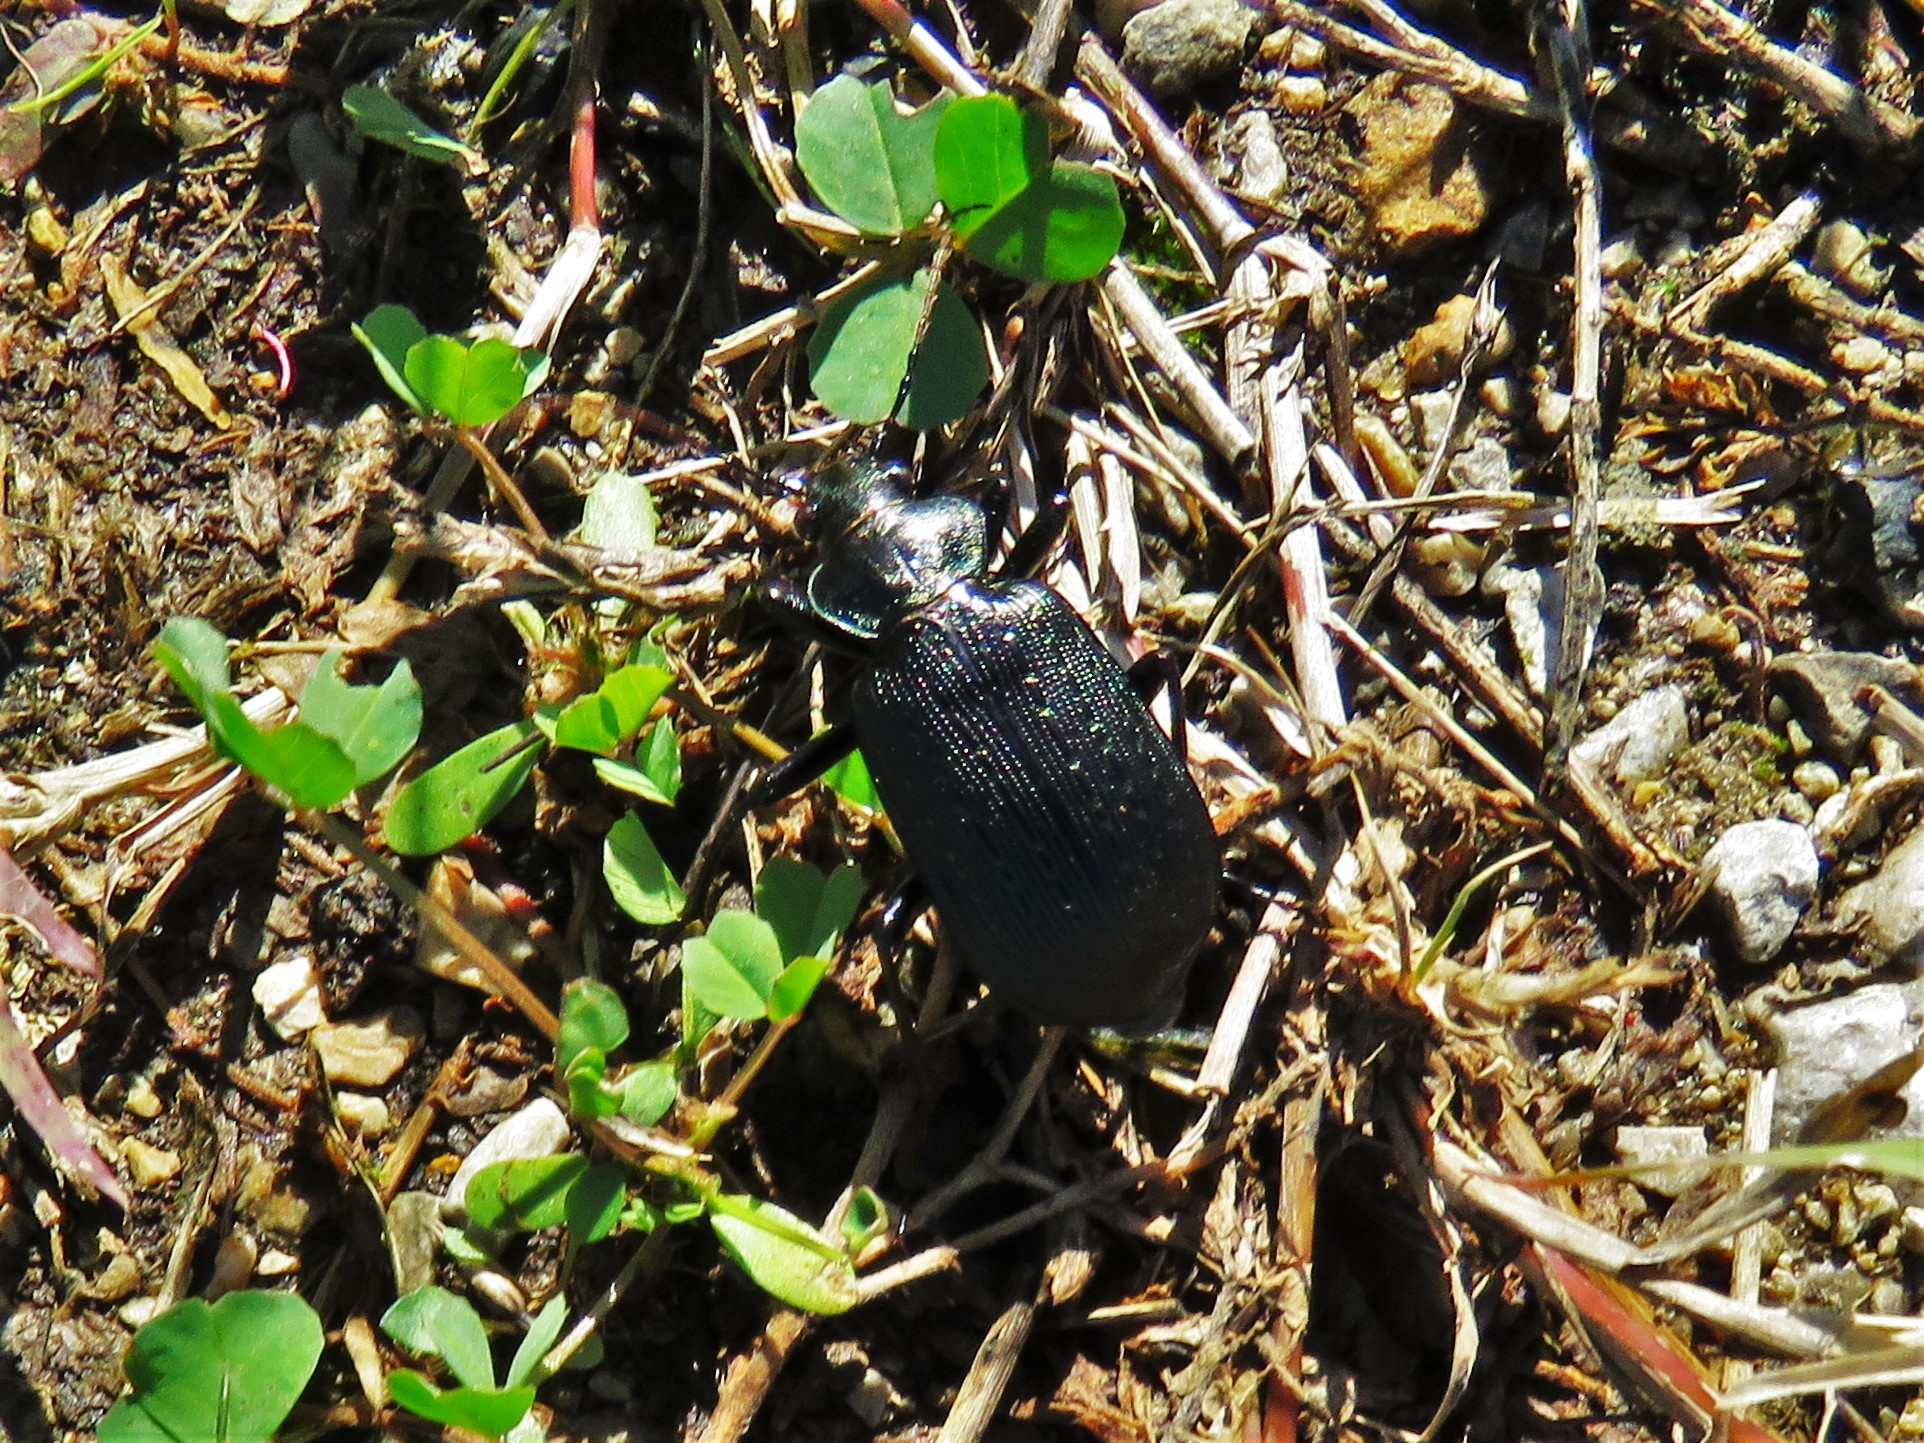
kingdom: Animalia
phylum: Arthropoda
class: Insecta
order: Coleoptera
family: Carabidae
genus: Calosoma
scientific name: Calosoma sayi
